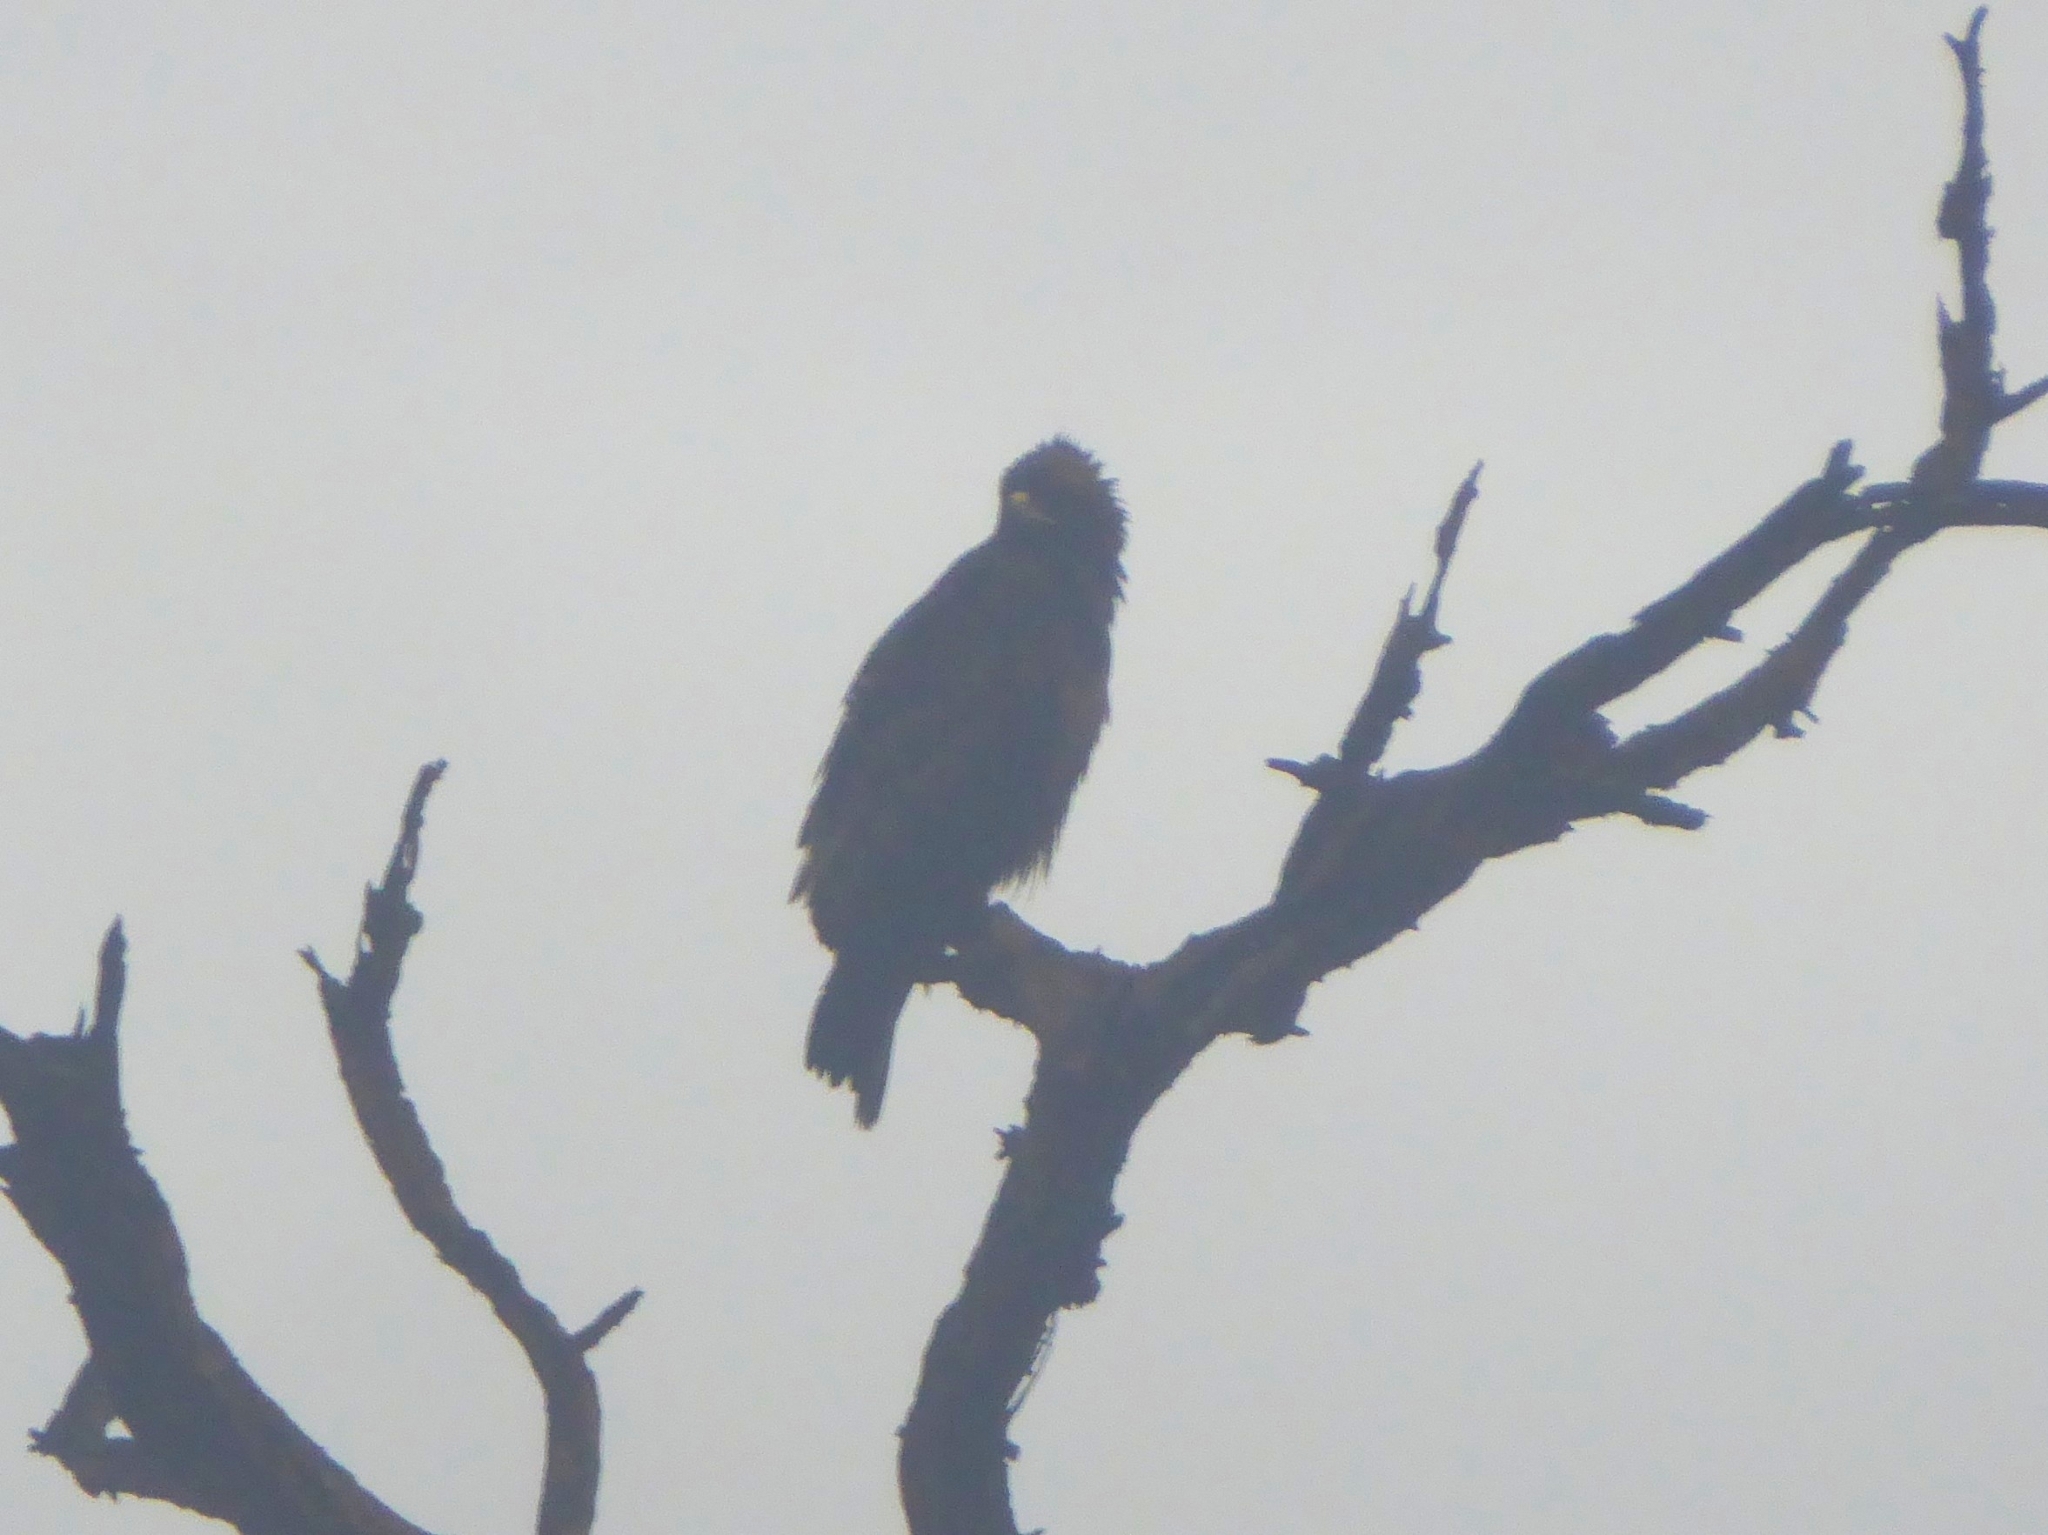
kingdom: Animalia
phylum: Chordata
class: Aves
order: Accipitriformes
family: Accipitridae
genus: Hieraaetus
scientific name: Hieraaetus wahlbergi
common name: Wahlberg's eagle
